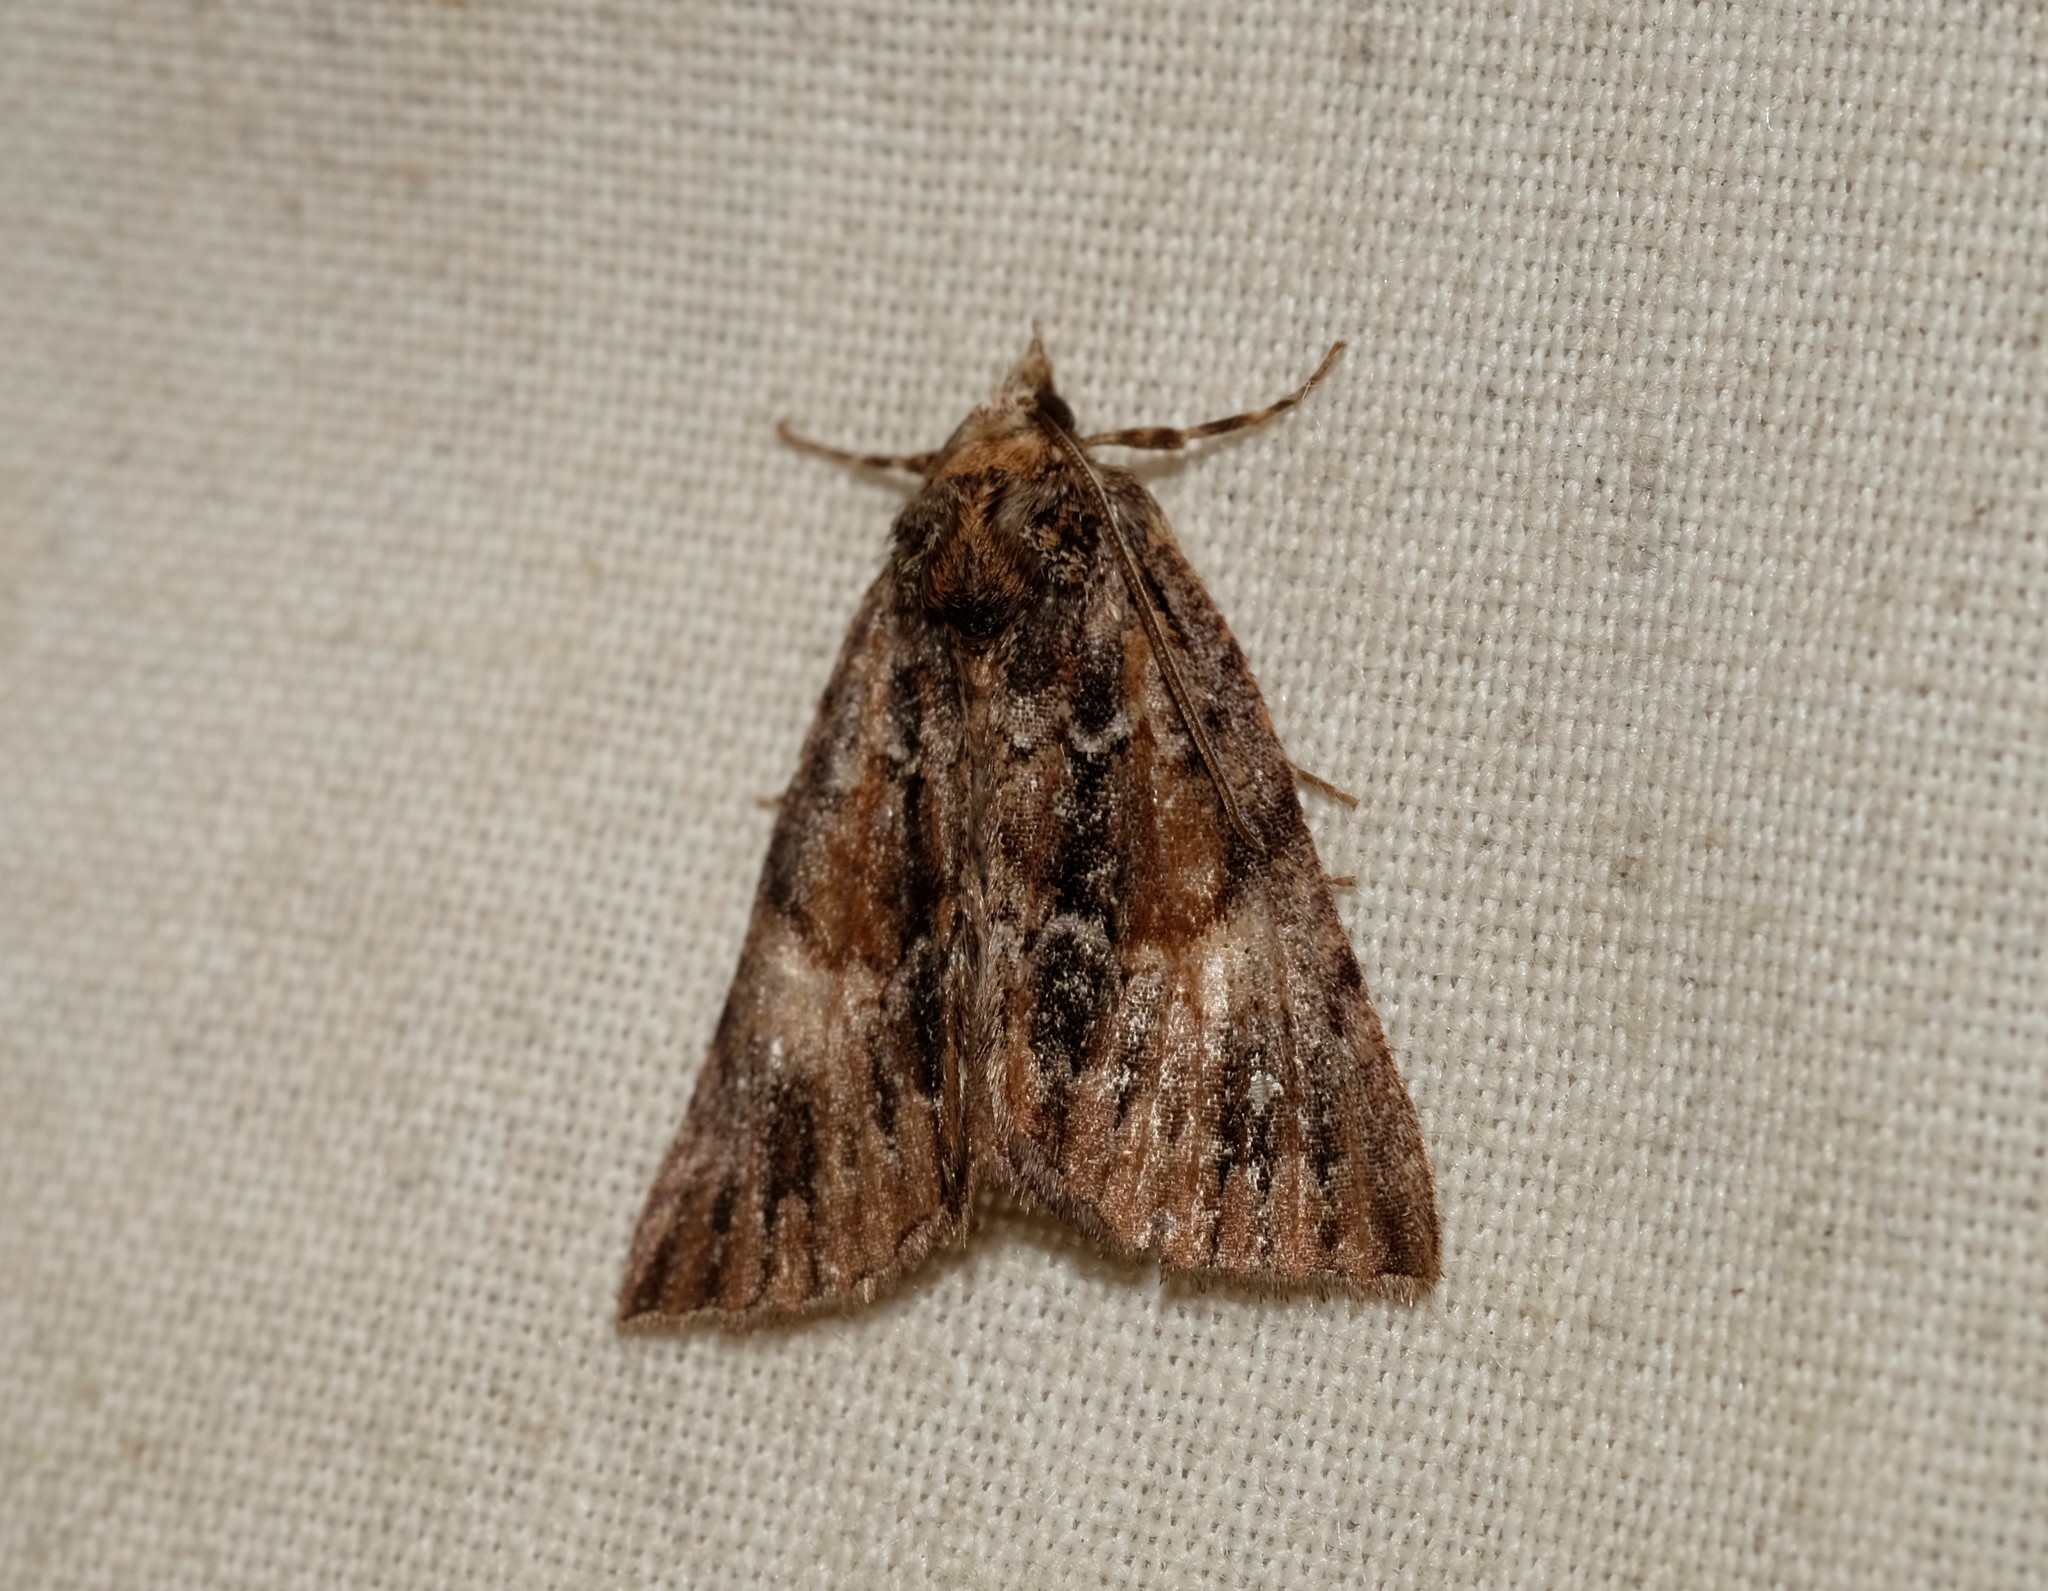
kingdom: Animalia
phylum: Arthropoda
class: Insecta
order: Lepidoptera
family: Geometridae
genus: Smyriodes
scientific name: Smyriodes
